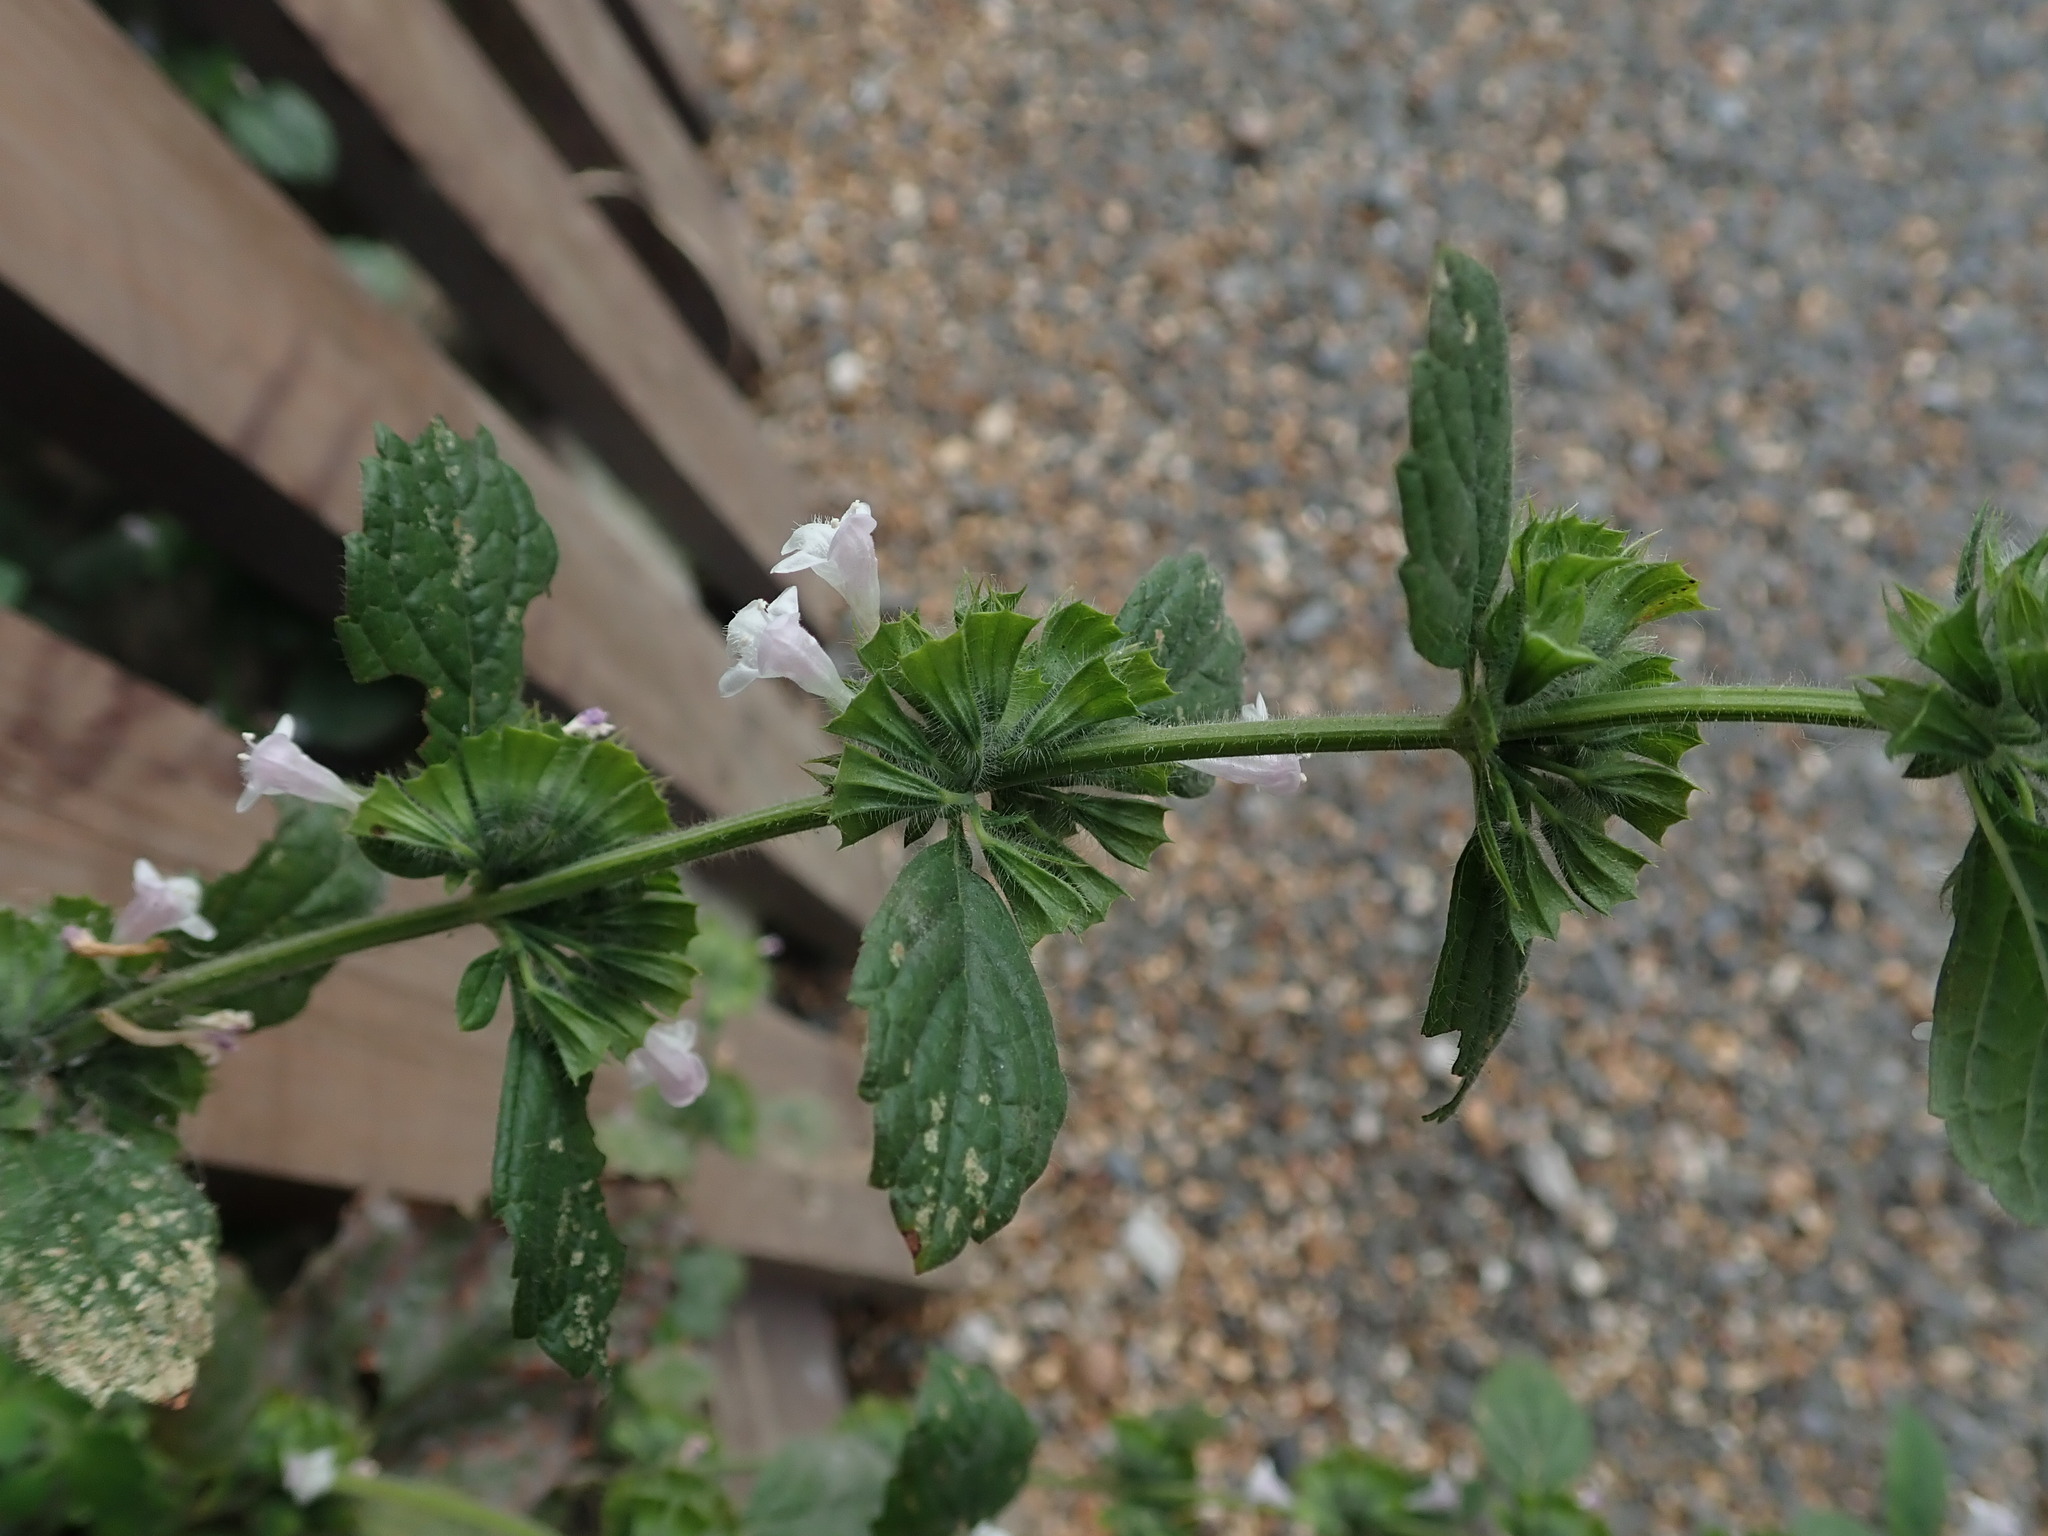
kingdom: Plantae
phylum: Tracheophyta
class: Magnoliopsida
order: Lamiales
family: Lamiaceae
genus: Melissa
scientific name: Melissa officinalis
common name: Balm
